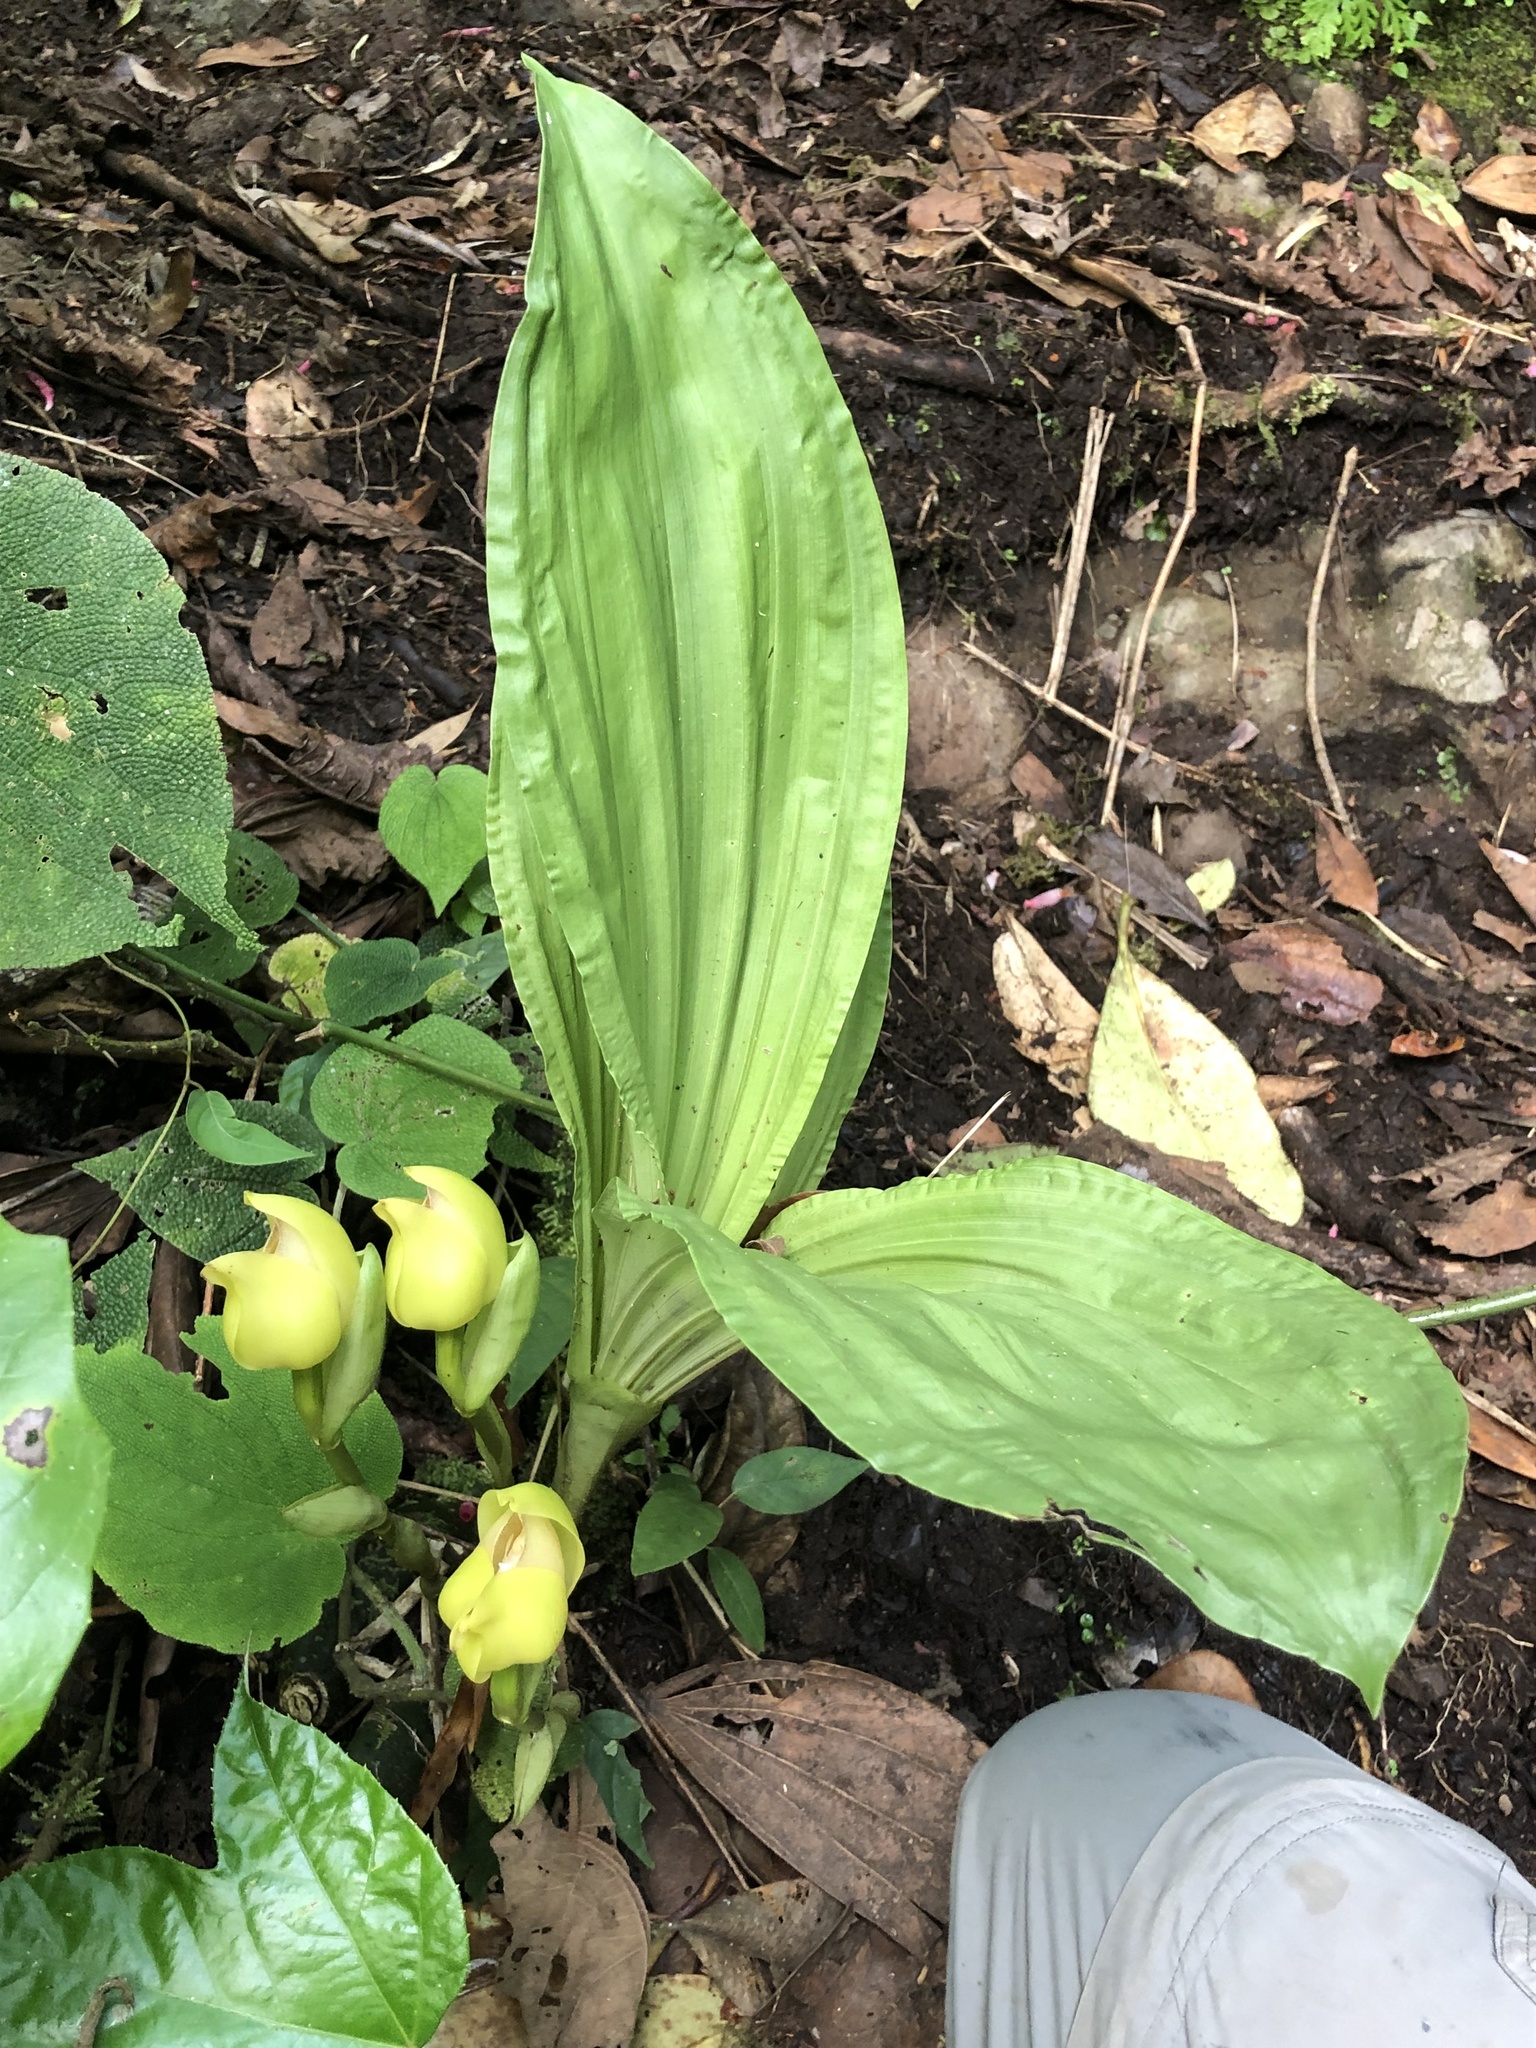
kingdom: Plantae
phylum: Tracheophyta
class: Liliopsida
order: Asparagales
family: Orchidaceae
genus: Anguloa
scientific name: Anguloa cliftonii
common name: Clifton's anguloa
